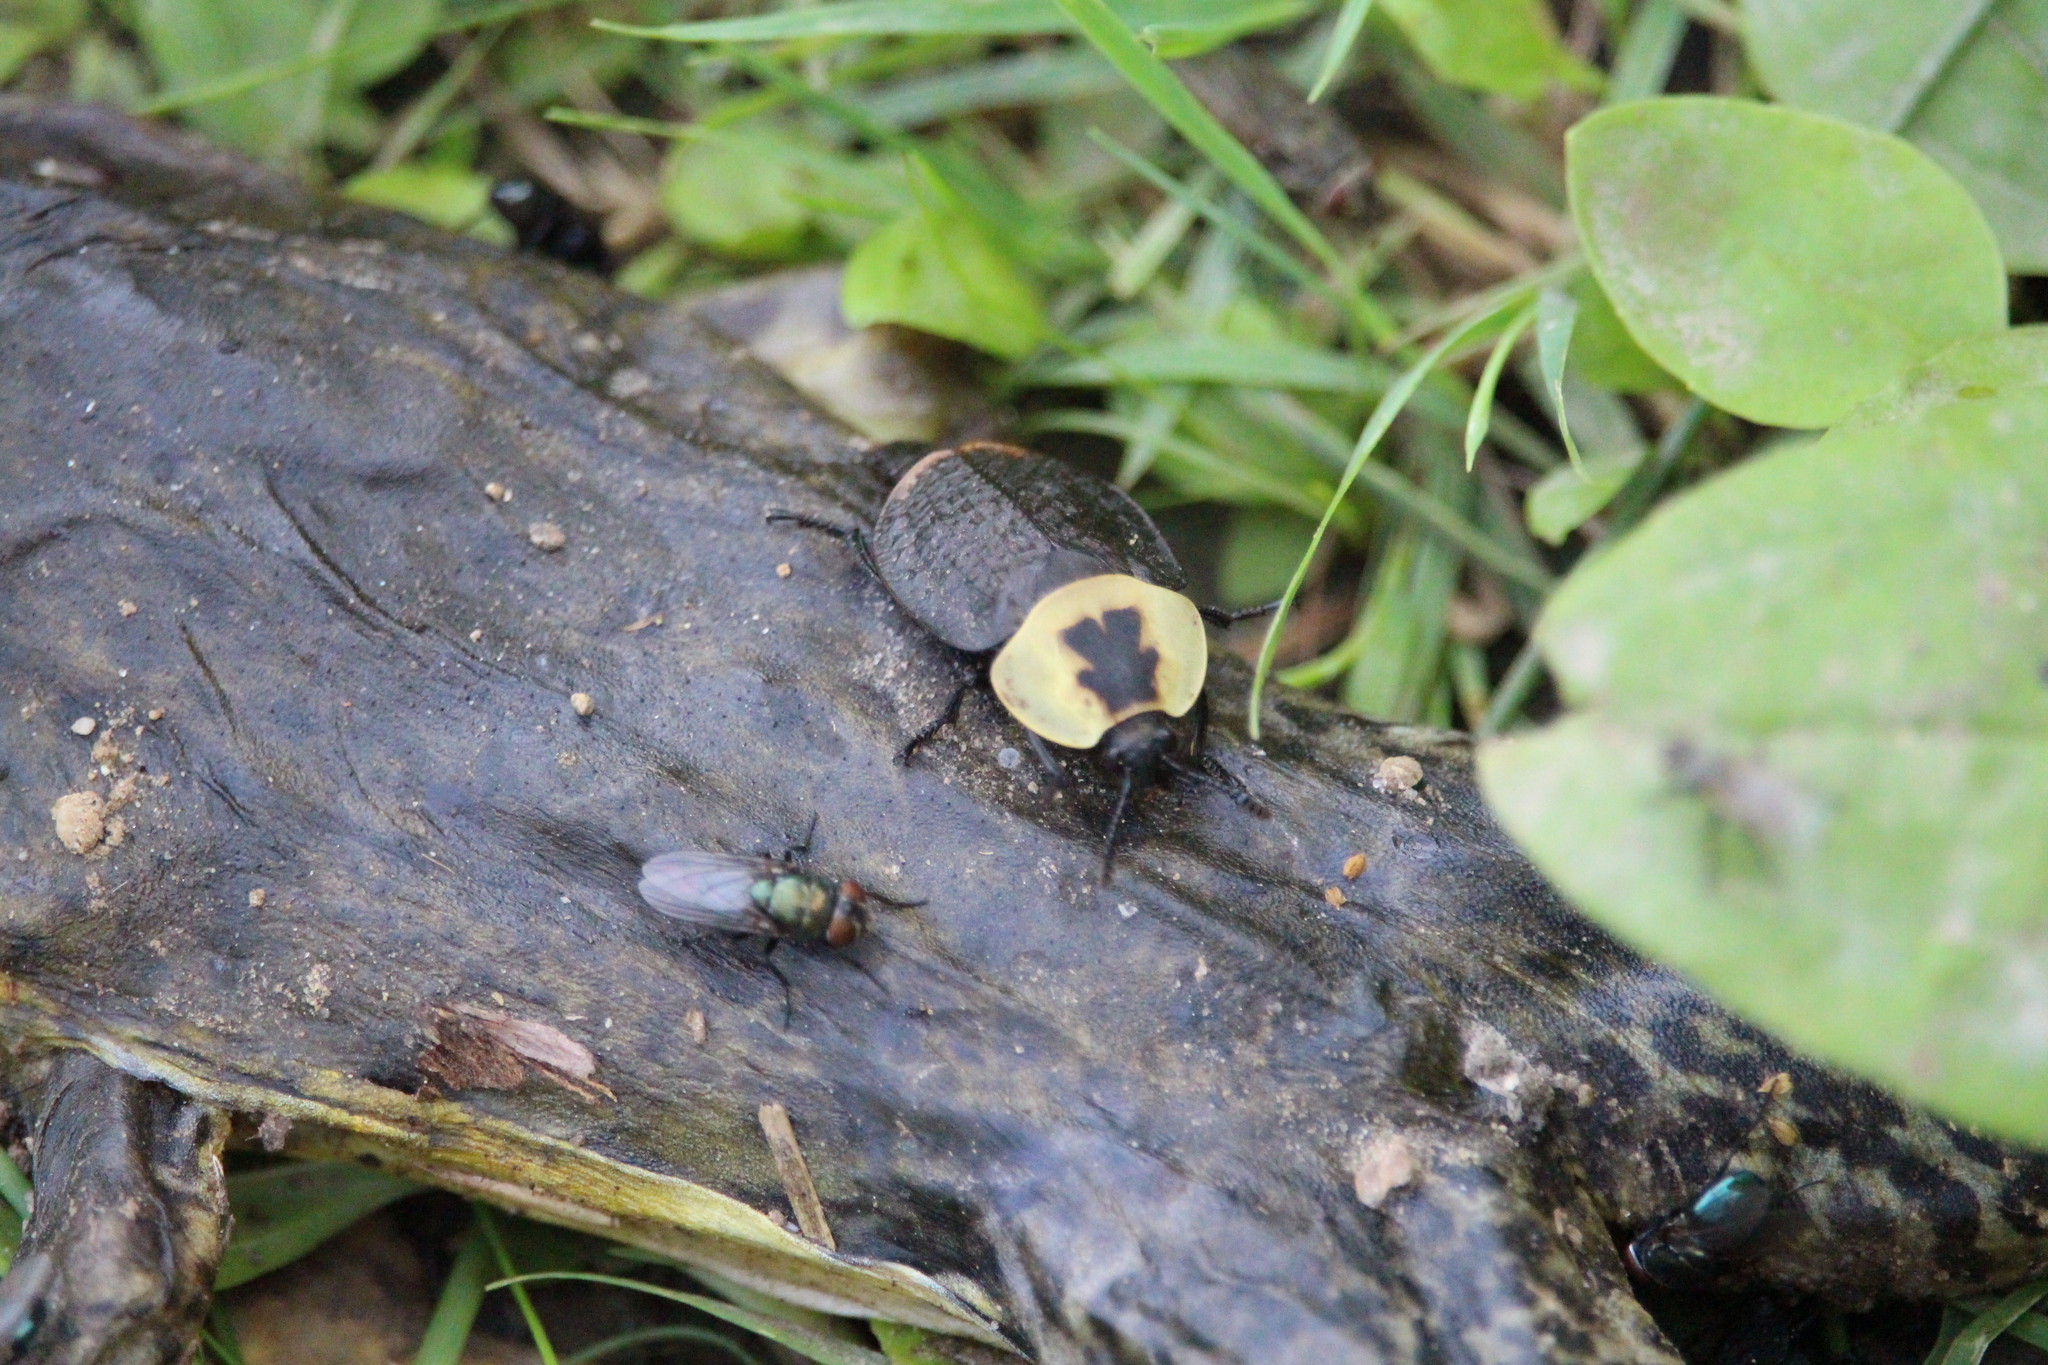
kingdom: Animalia
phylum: Arthropoda
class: Insecta
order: Coleoptera
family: Staphylinidae
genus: Necrophila
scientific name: Necrophila americana
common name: American carrion beetle
